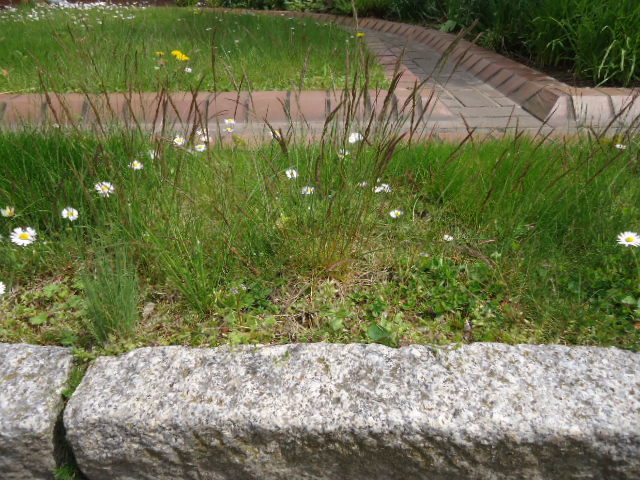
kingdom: Plantae
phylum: Tracheophyta
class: Liliopsida
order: Poales
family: Poaceae
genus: Festuca
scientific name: Festuca rubra
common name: Red fescue
